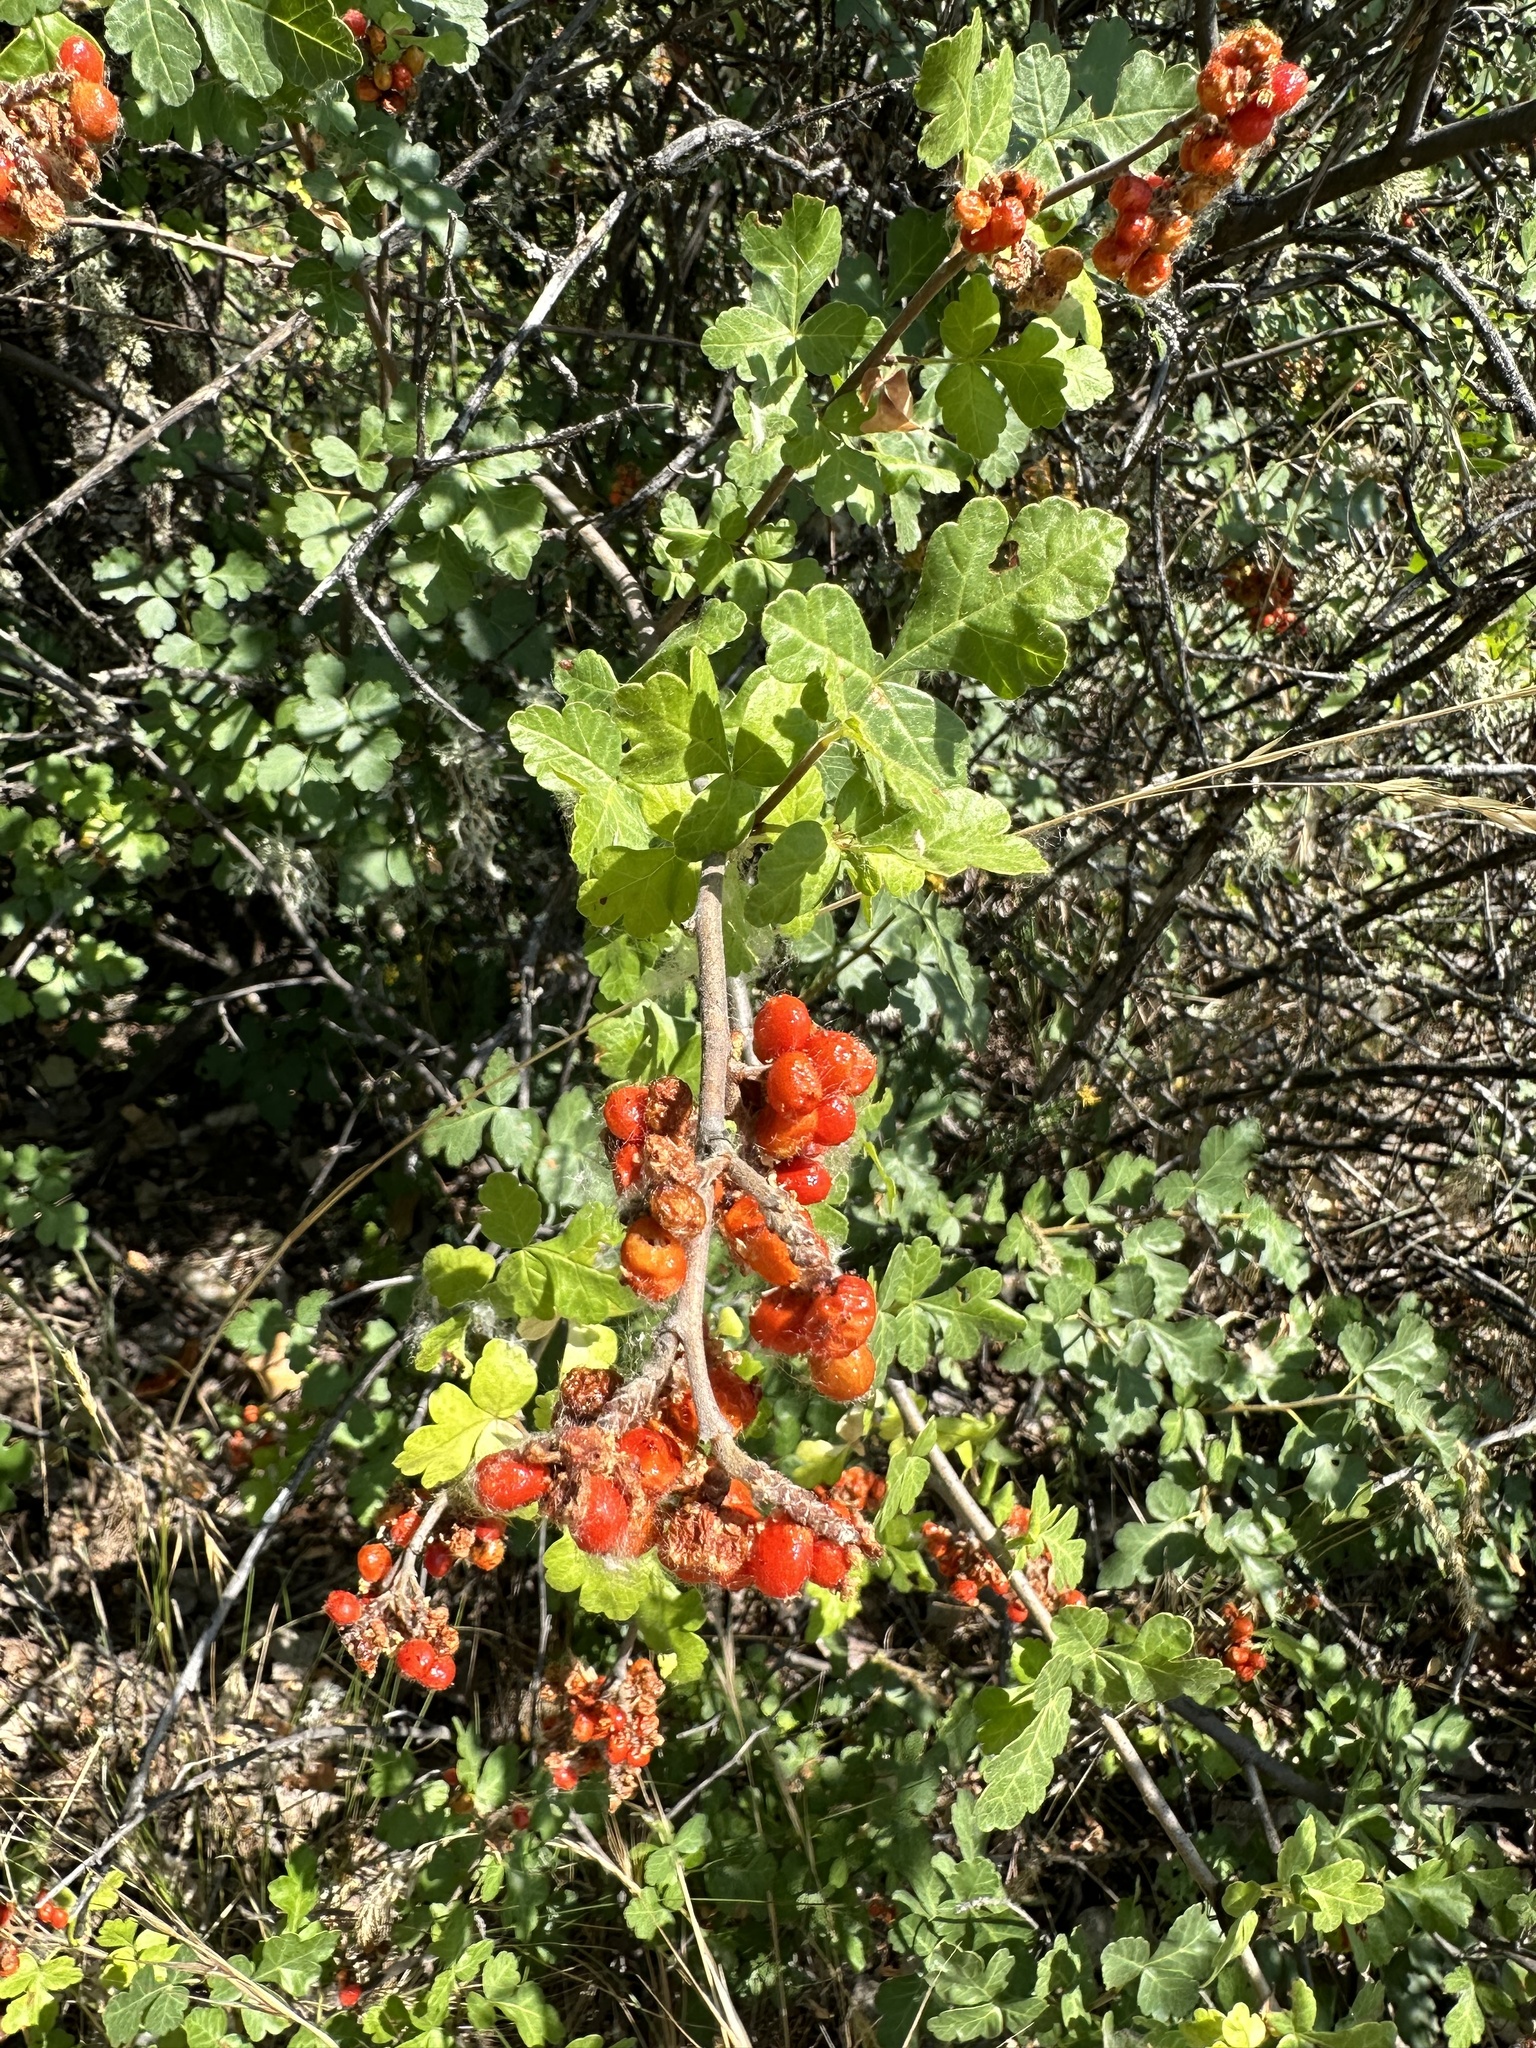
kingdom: Plantae
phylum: Tracheophyta
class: Magnoliopsida
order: Sapindales
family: Anacardiaceae
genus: Rhus
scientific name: Rhus aromatica
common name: Aromatic sumac
